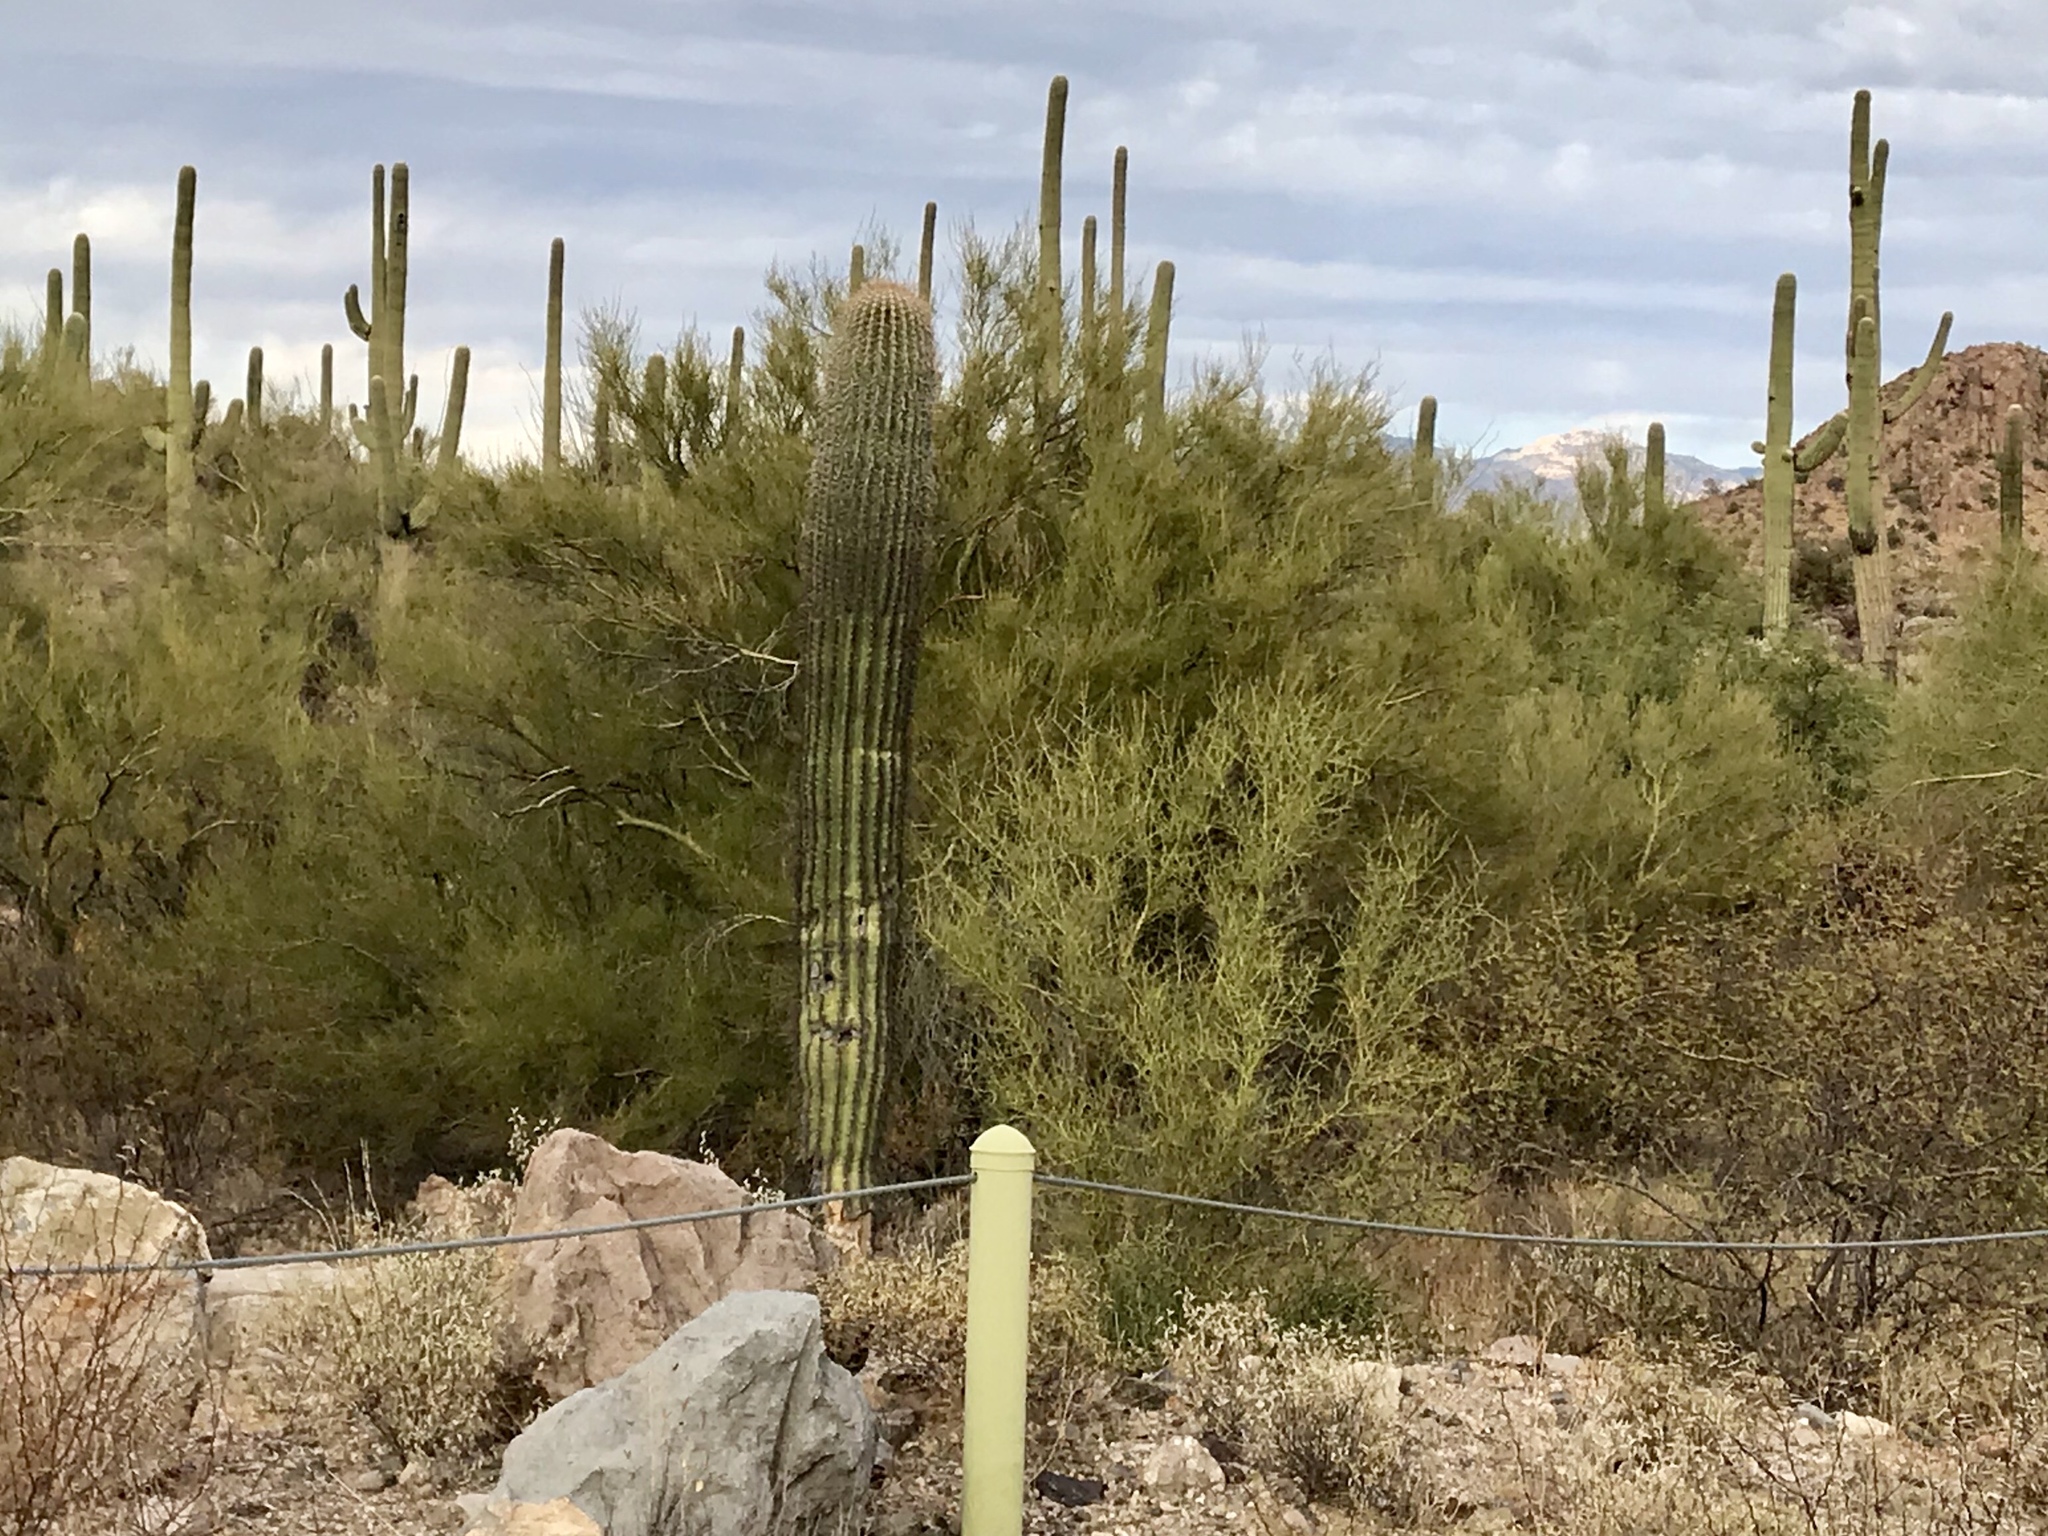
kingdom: Plantae
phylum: Tracheophyta
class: Magnoliopsida
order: Fabales
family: Fabaceae
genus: Parkinsonia
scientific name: Parkinsonia microphylla
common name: Yellow paloverde
